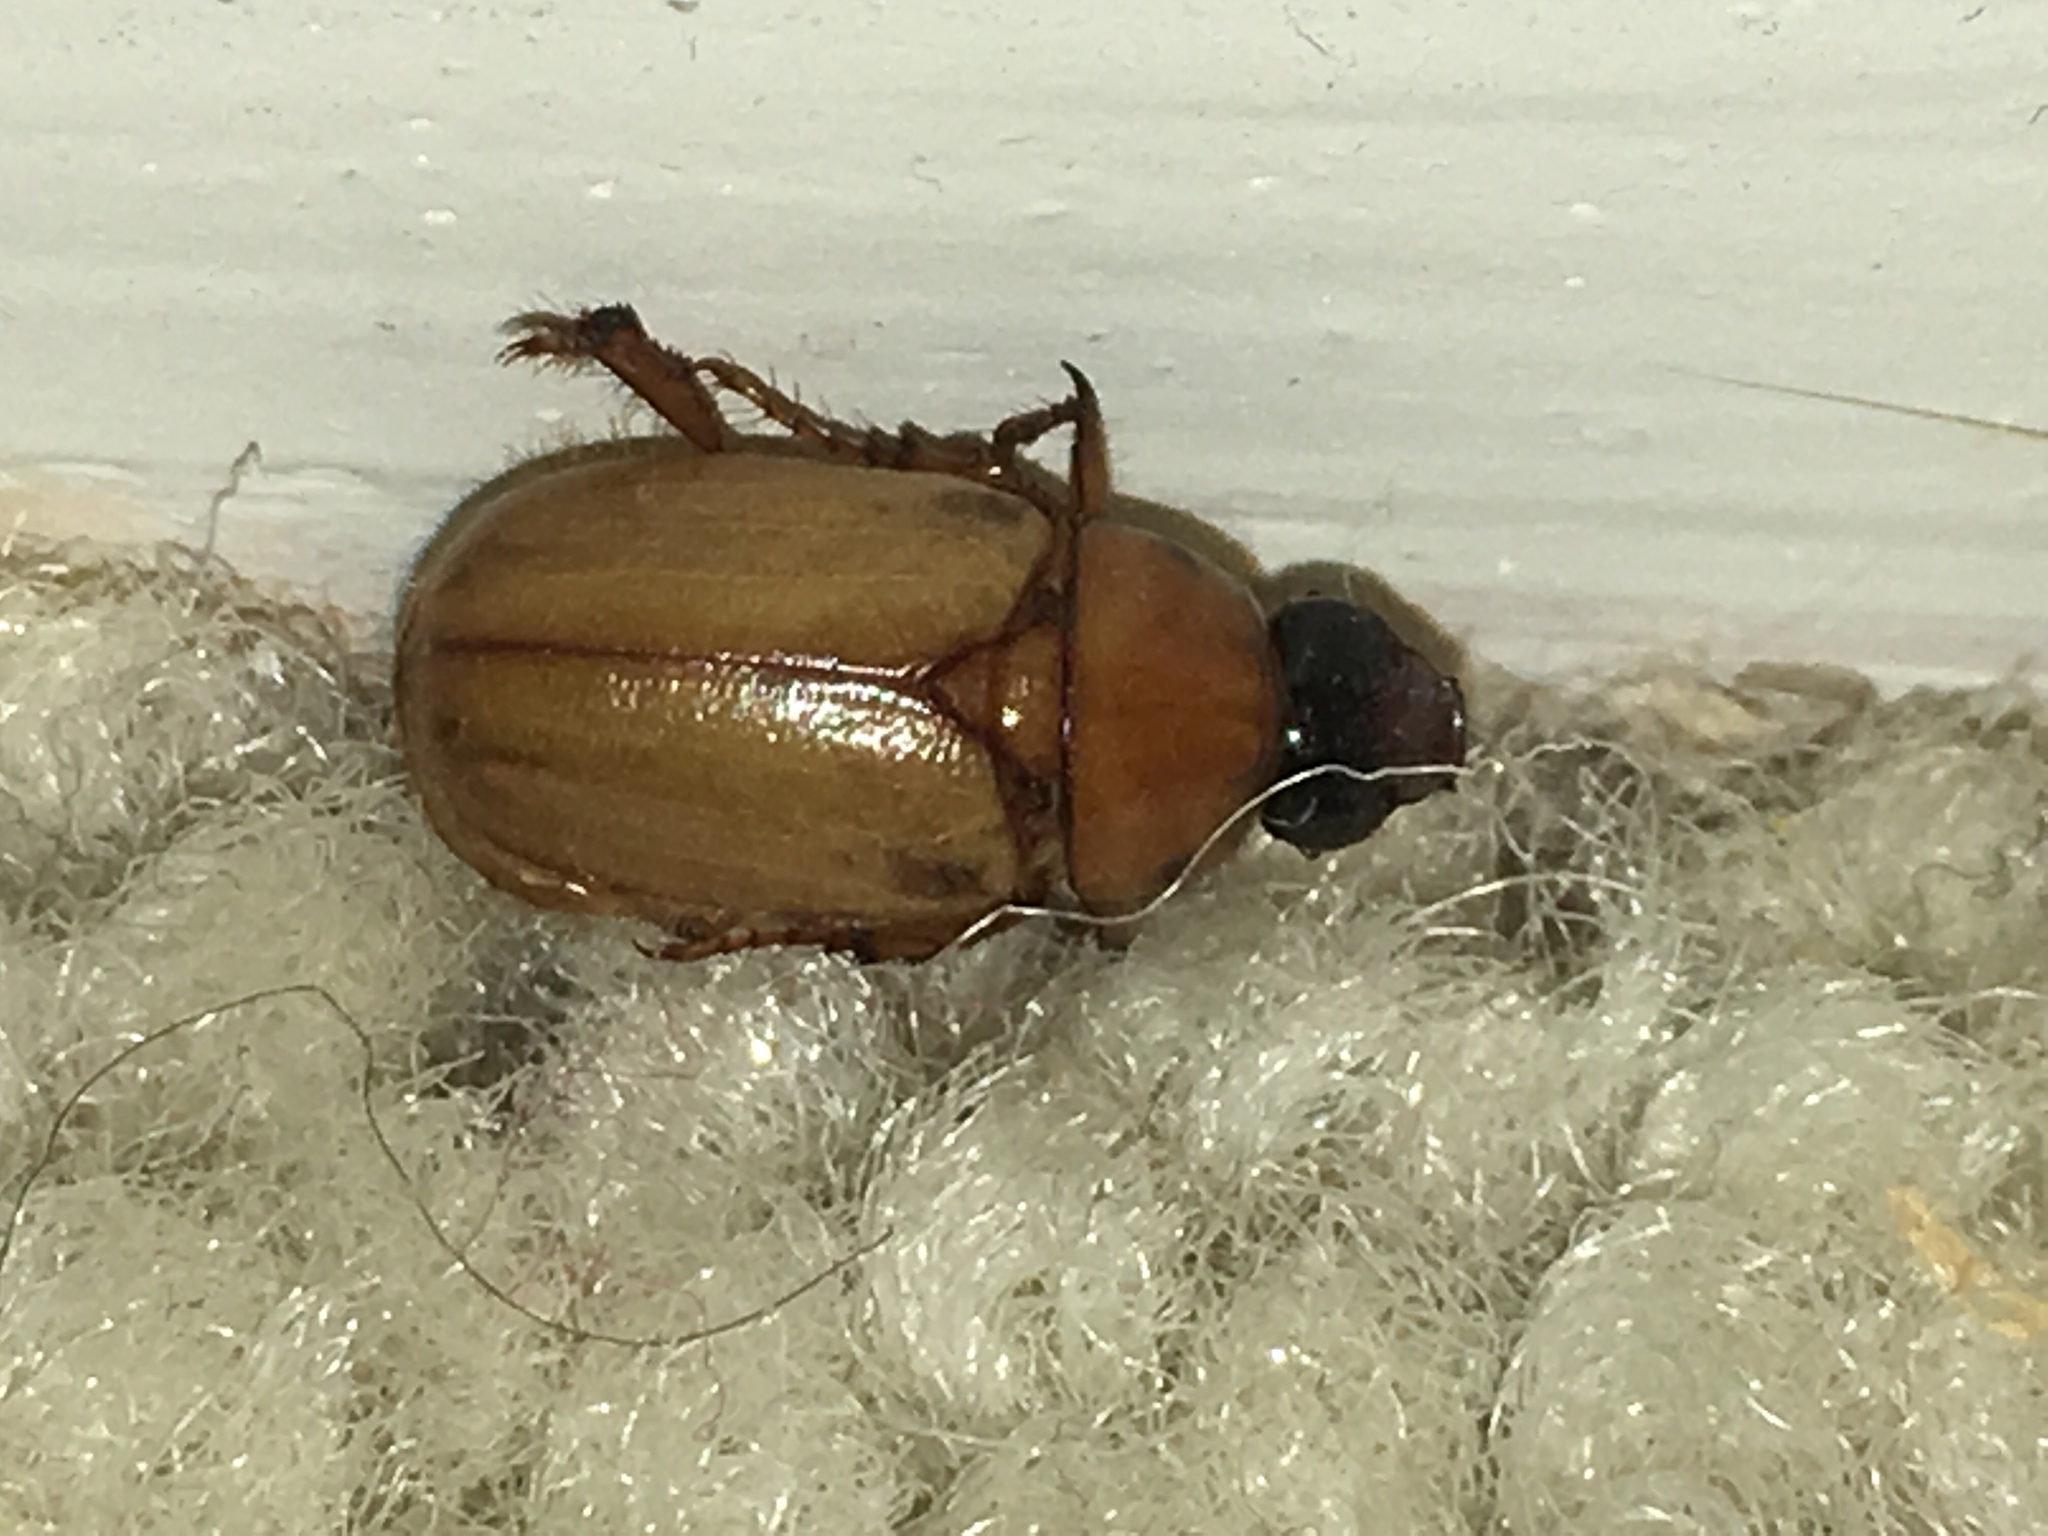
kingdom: Animalia
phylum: Arthropoda
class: Insecta
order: Coleoptera
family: Scarabaeidae
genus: Cyclocephala
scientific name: Cyclocephala longula
